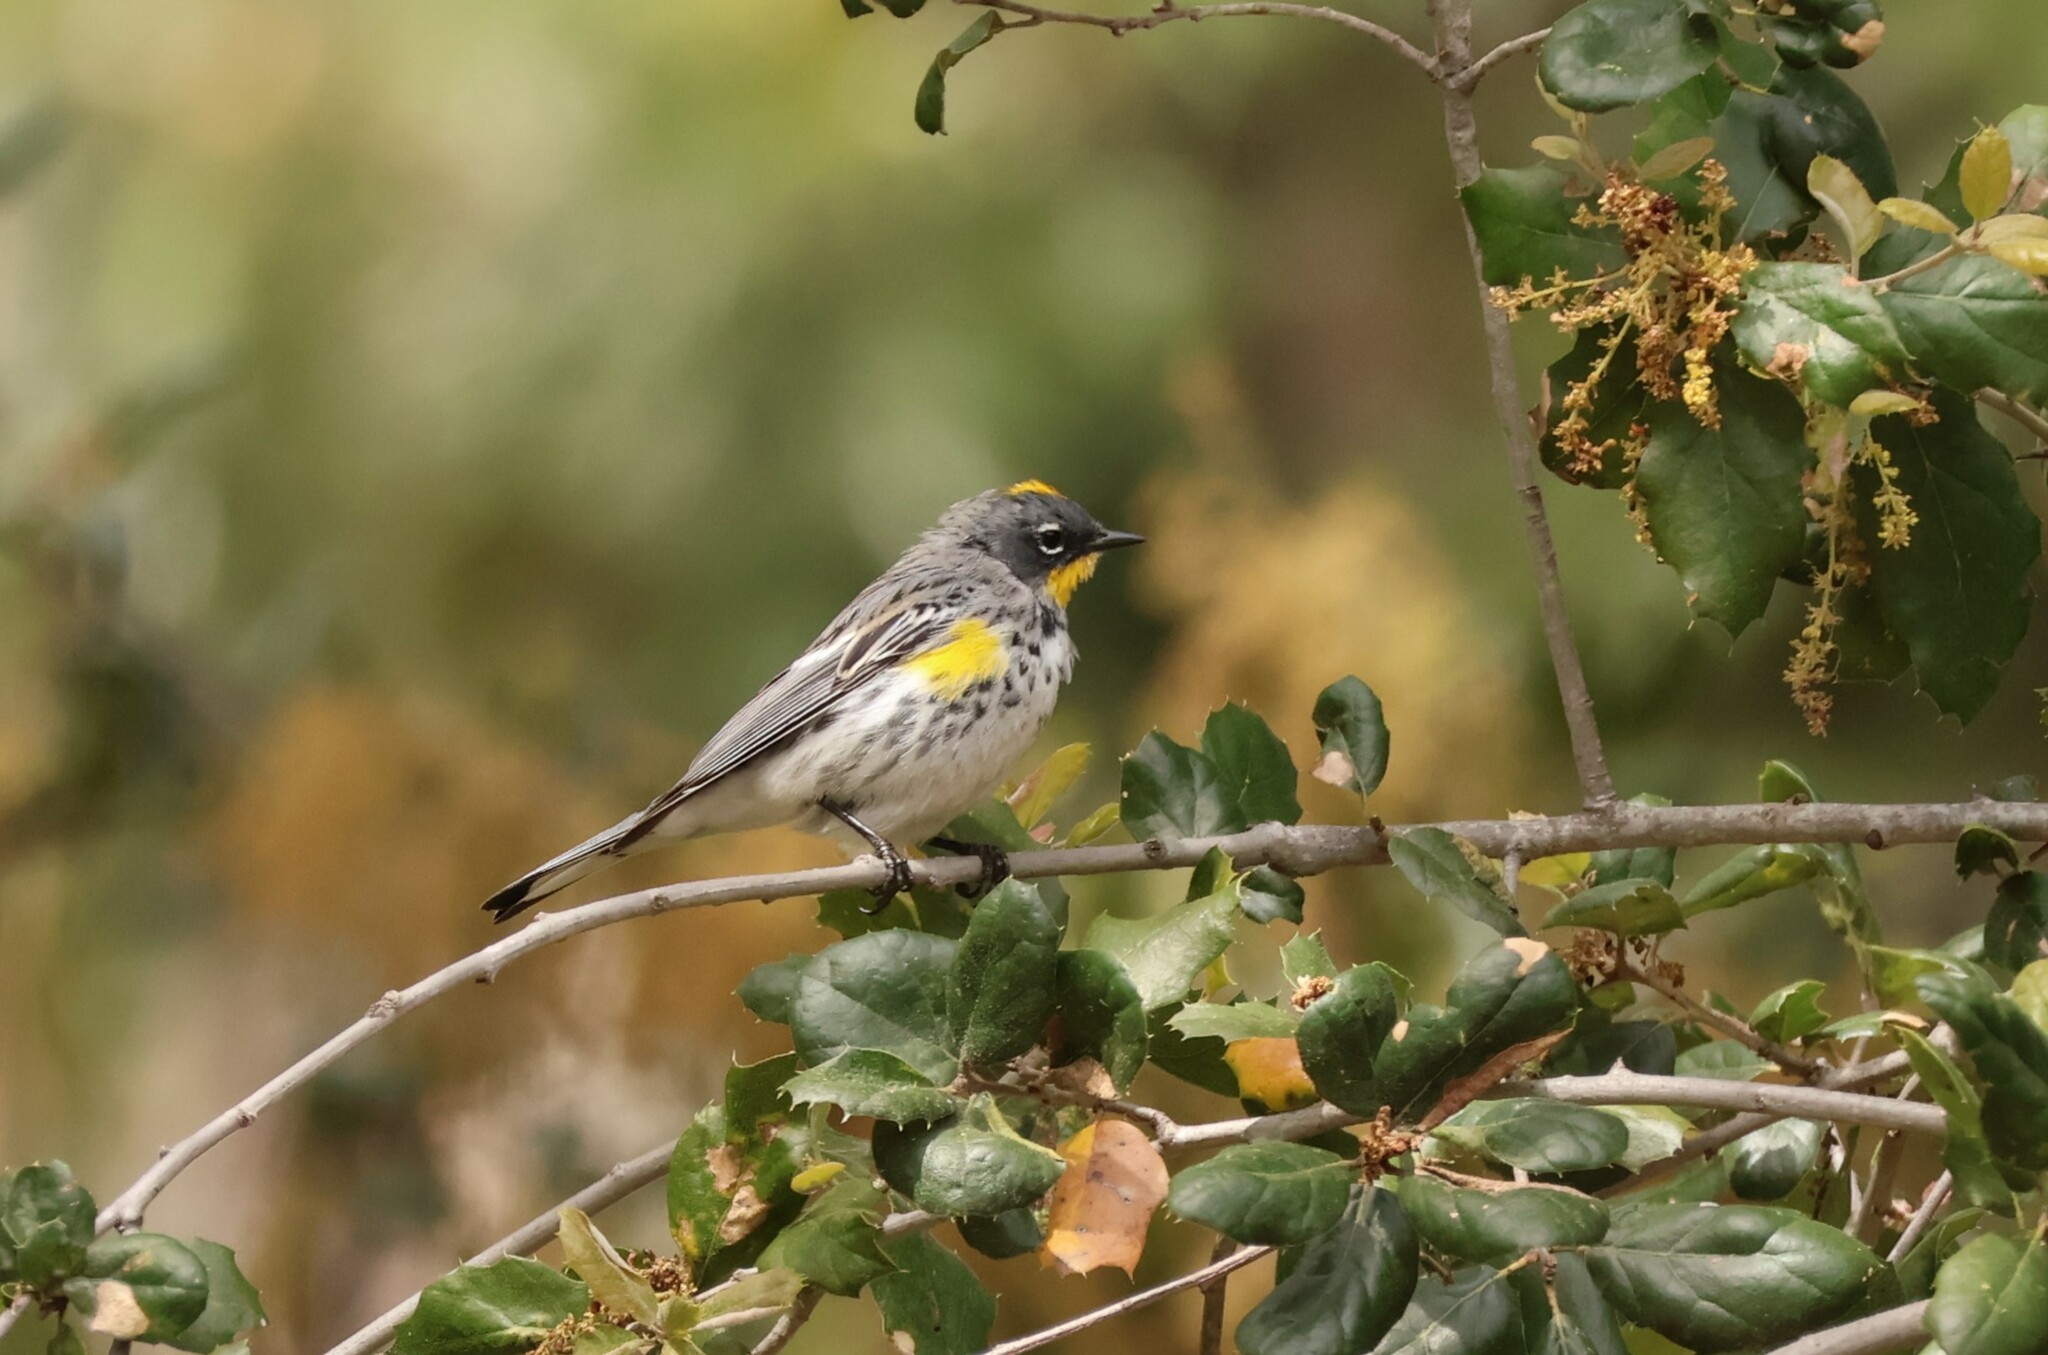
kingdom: Animalia
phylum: Chordata
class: Aves
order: Passeriformes
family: Parulidae
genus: Setophaga
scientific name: Setophaga auduboni
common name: Audubon's warbler
